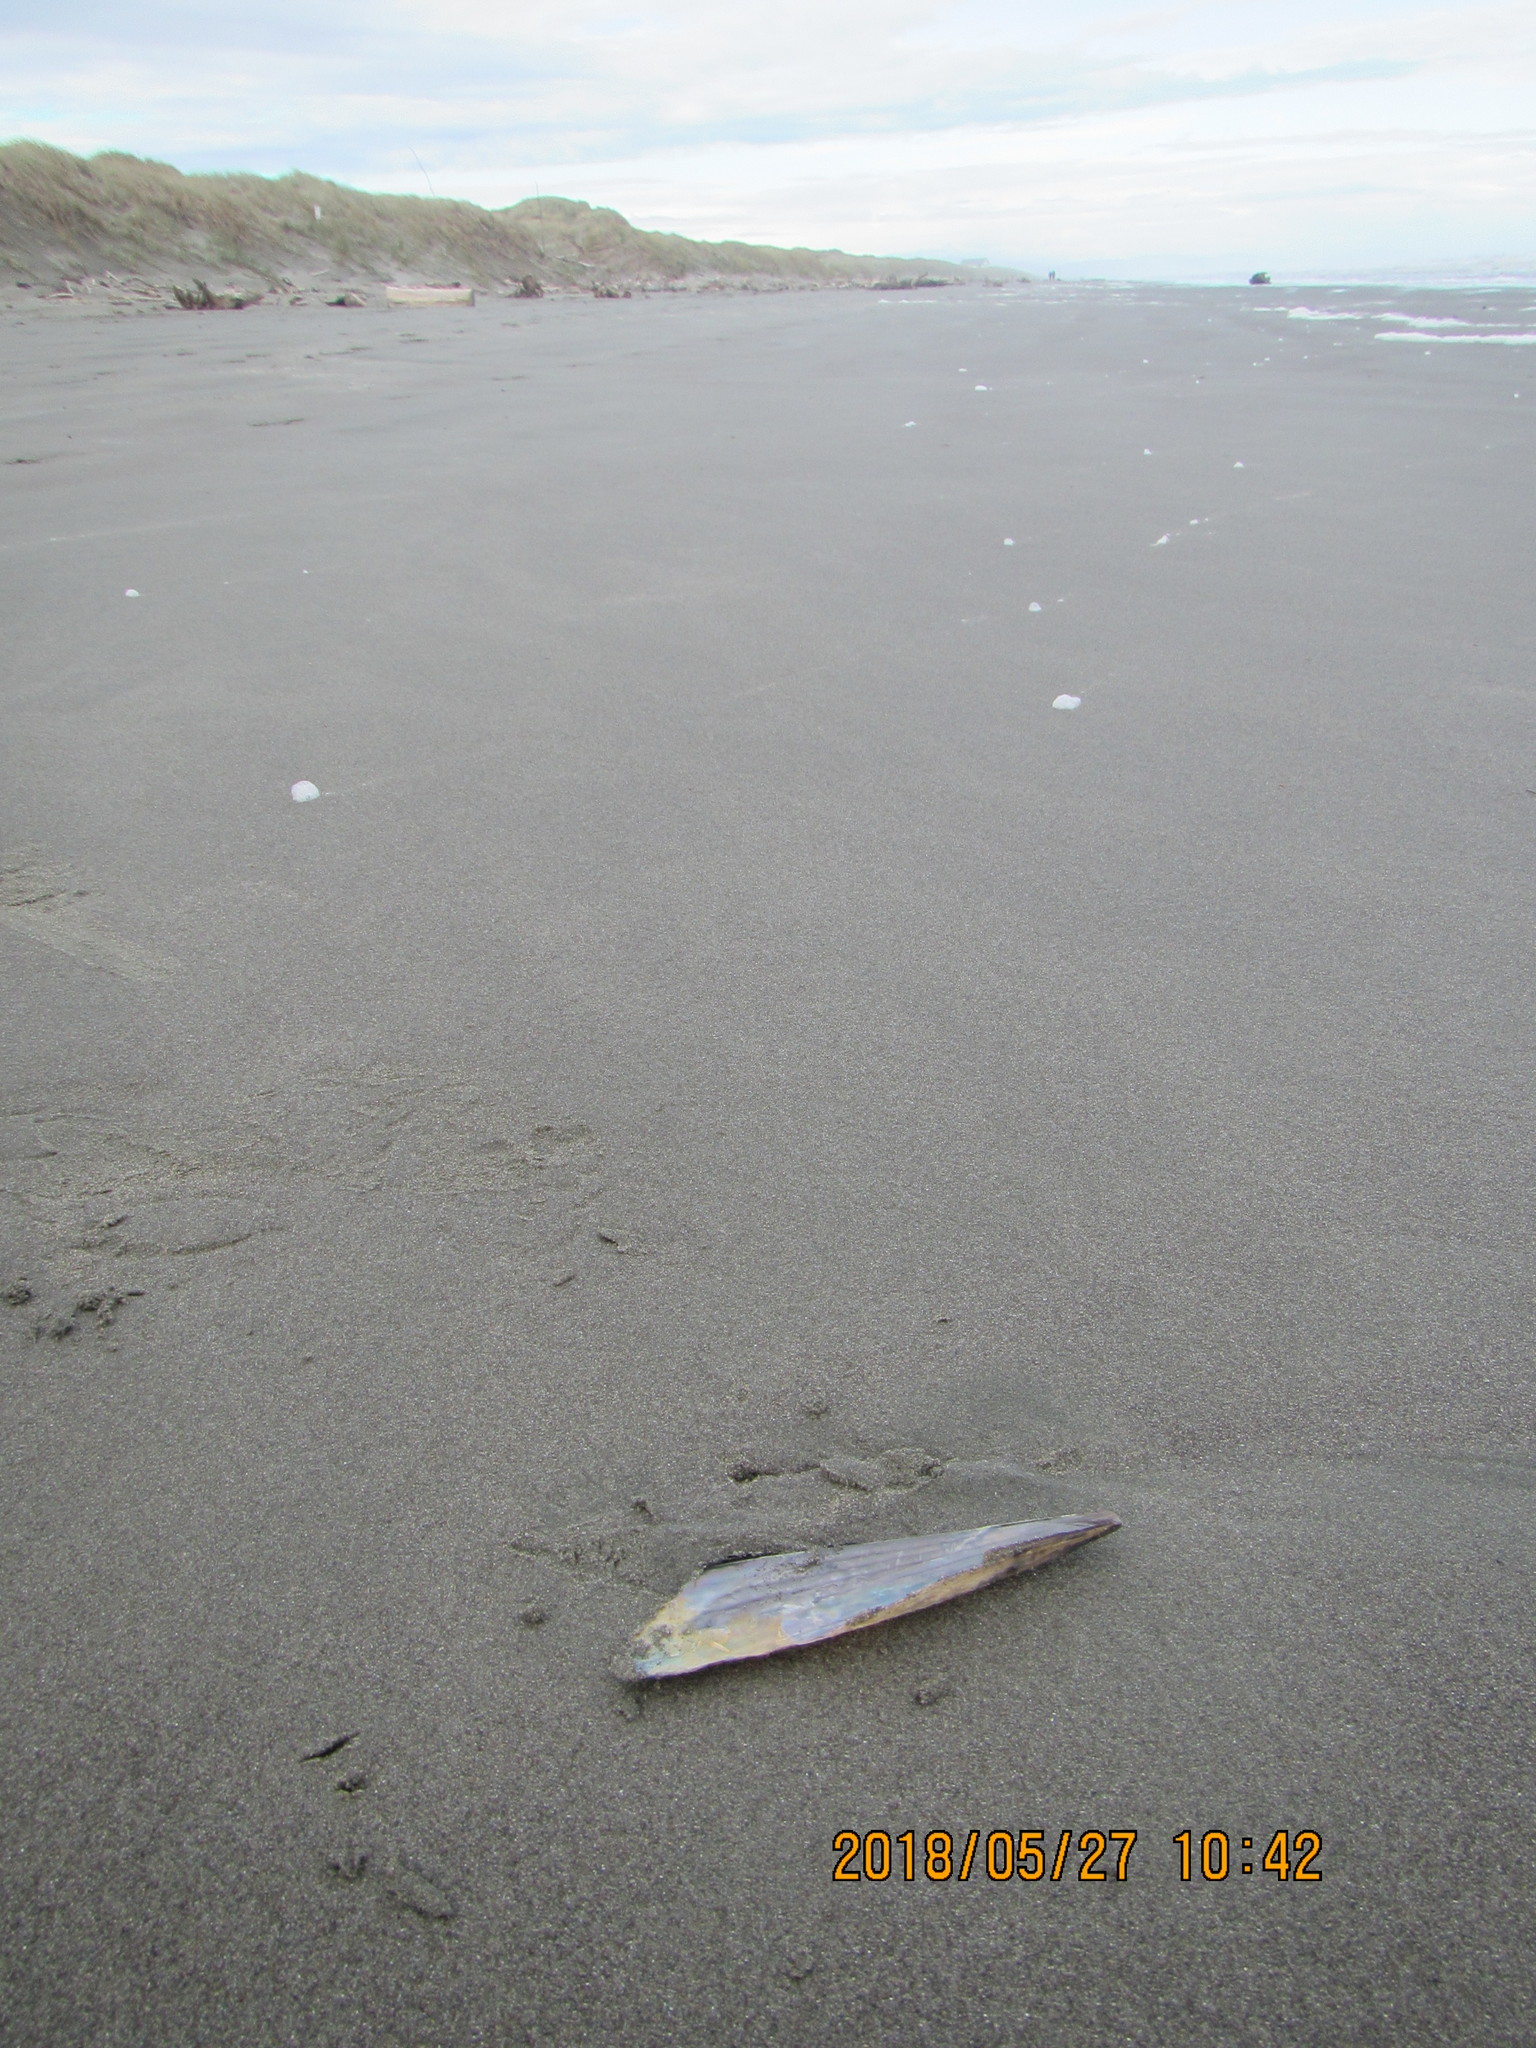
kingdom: Animalia
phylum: Mollusca
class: Bivalvia
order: Ostreida
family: Pinnidae
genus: Atrina
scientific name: Atrina zelandica
